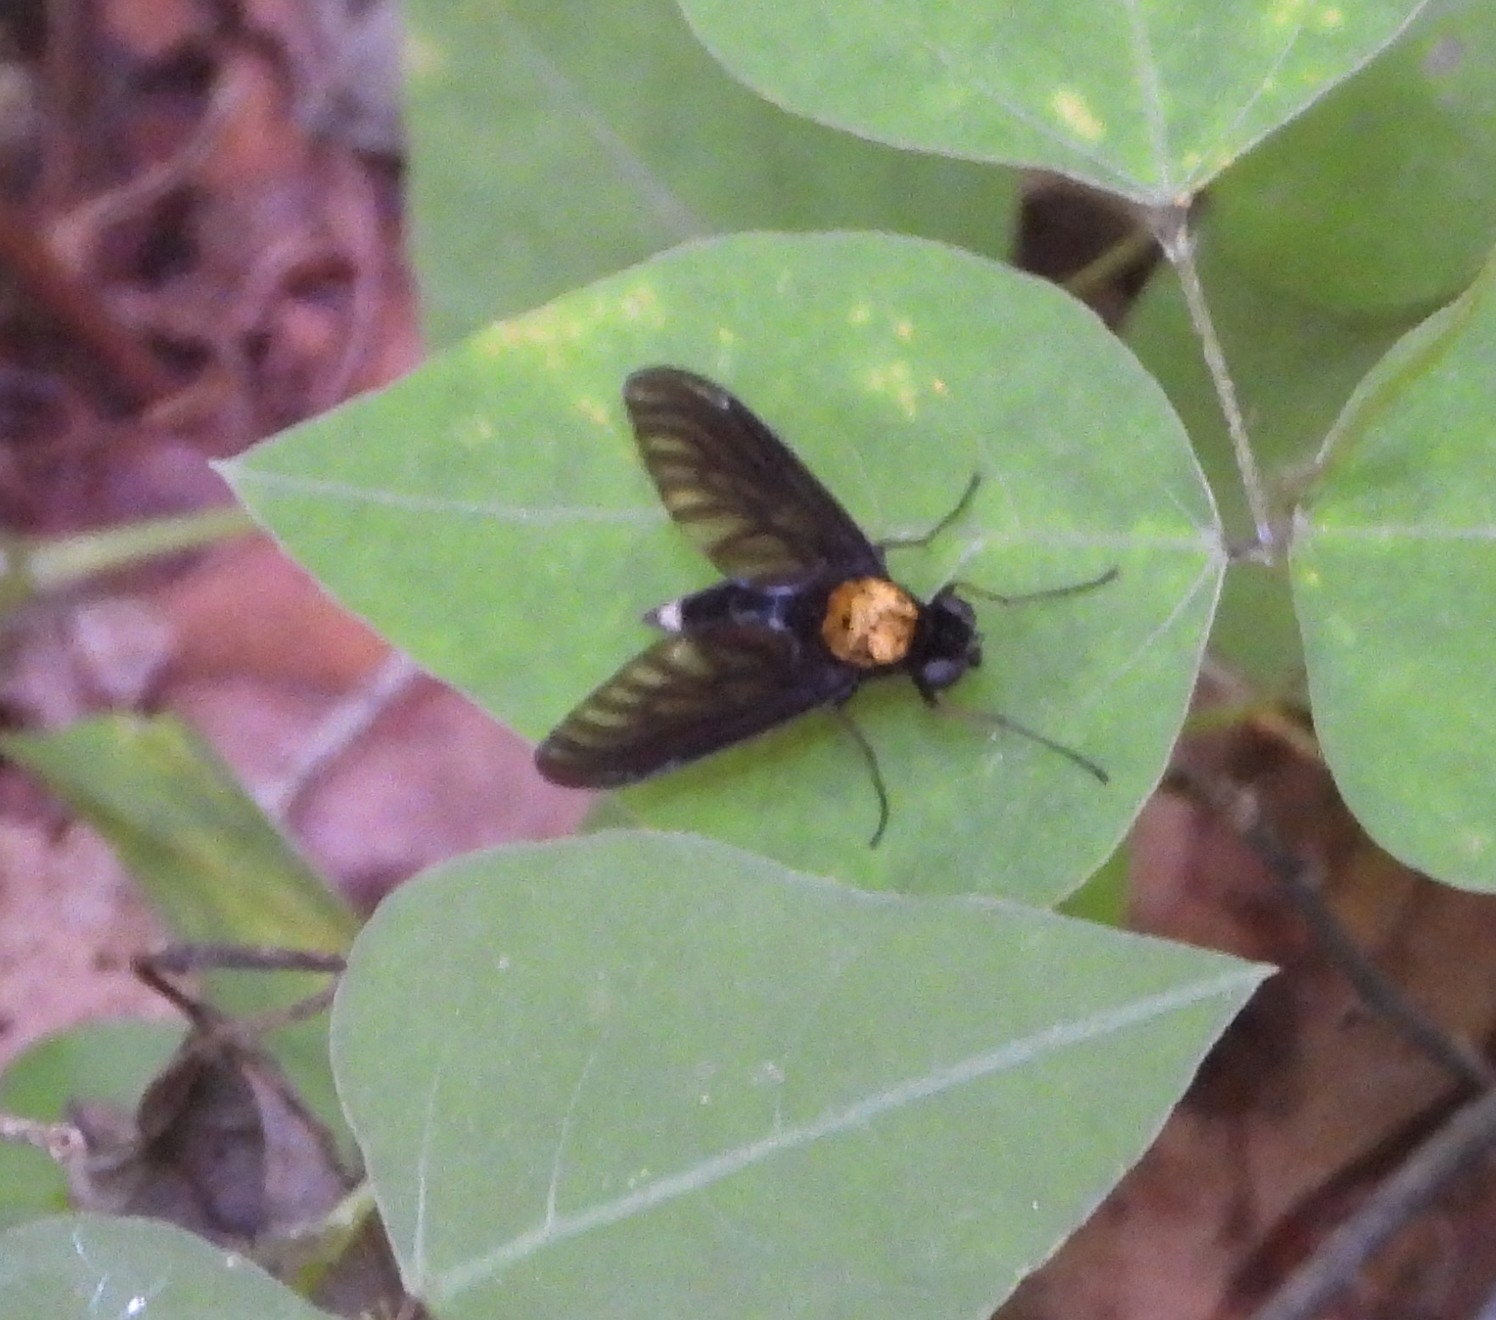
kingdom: Animalia
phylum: Arthropoda
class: Insecta
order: Diptera
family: Rhagionidae
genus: Chrysopilus
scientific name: Chrysopilus davisi
